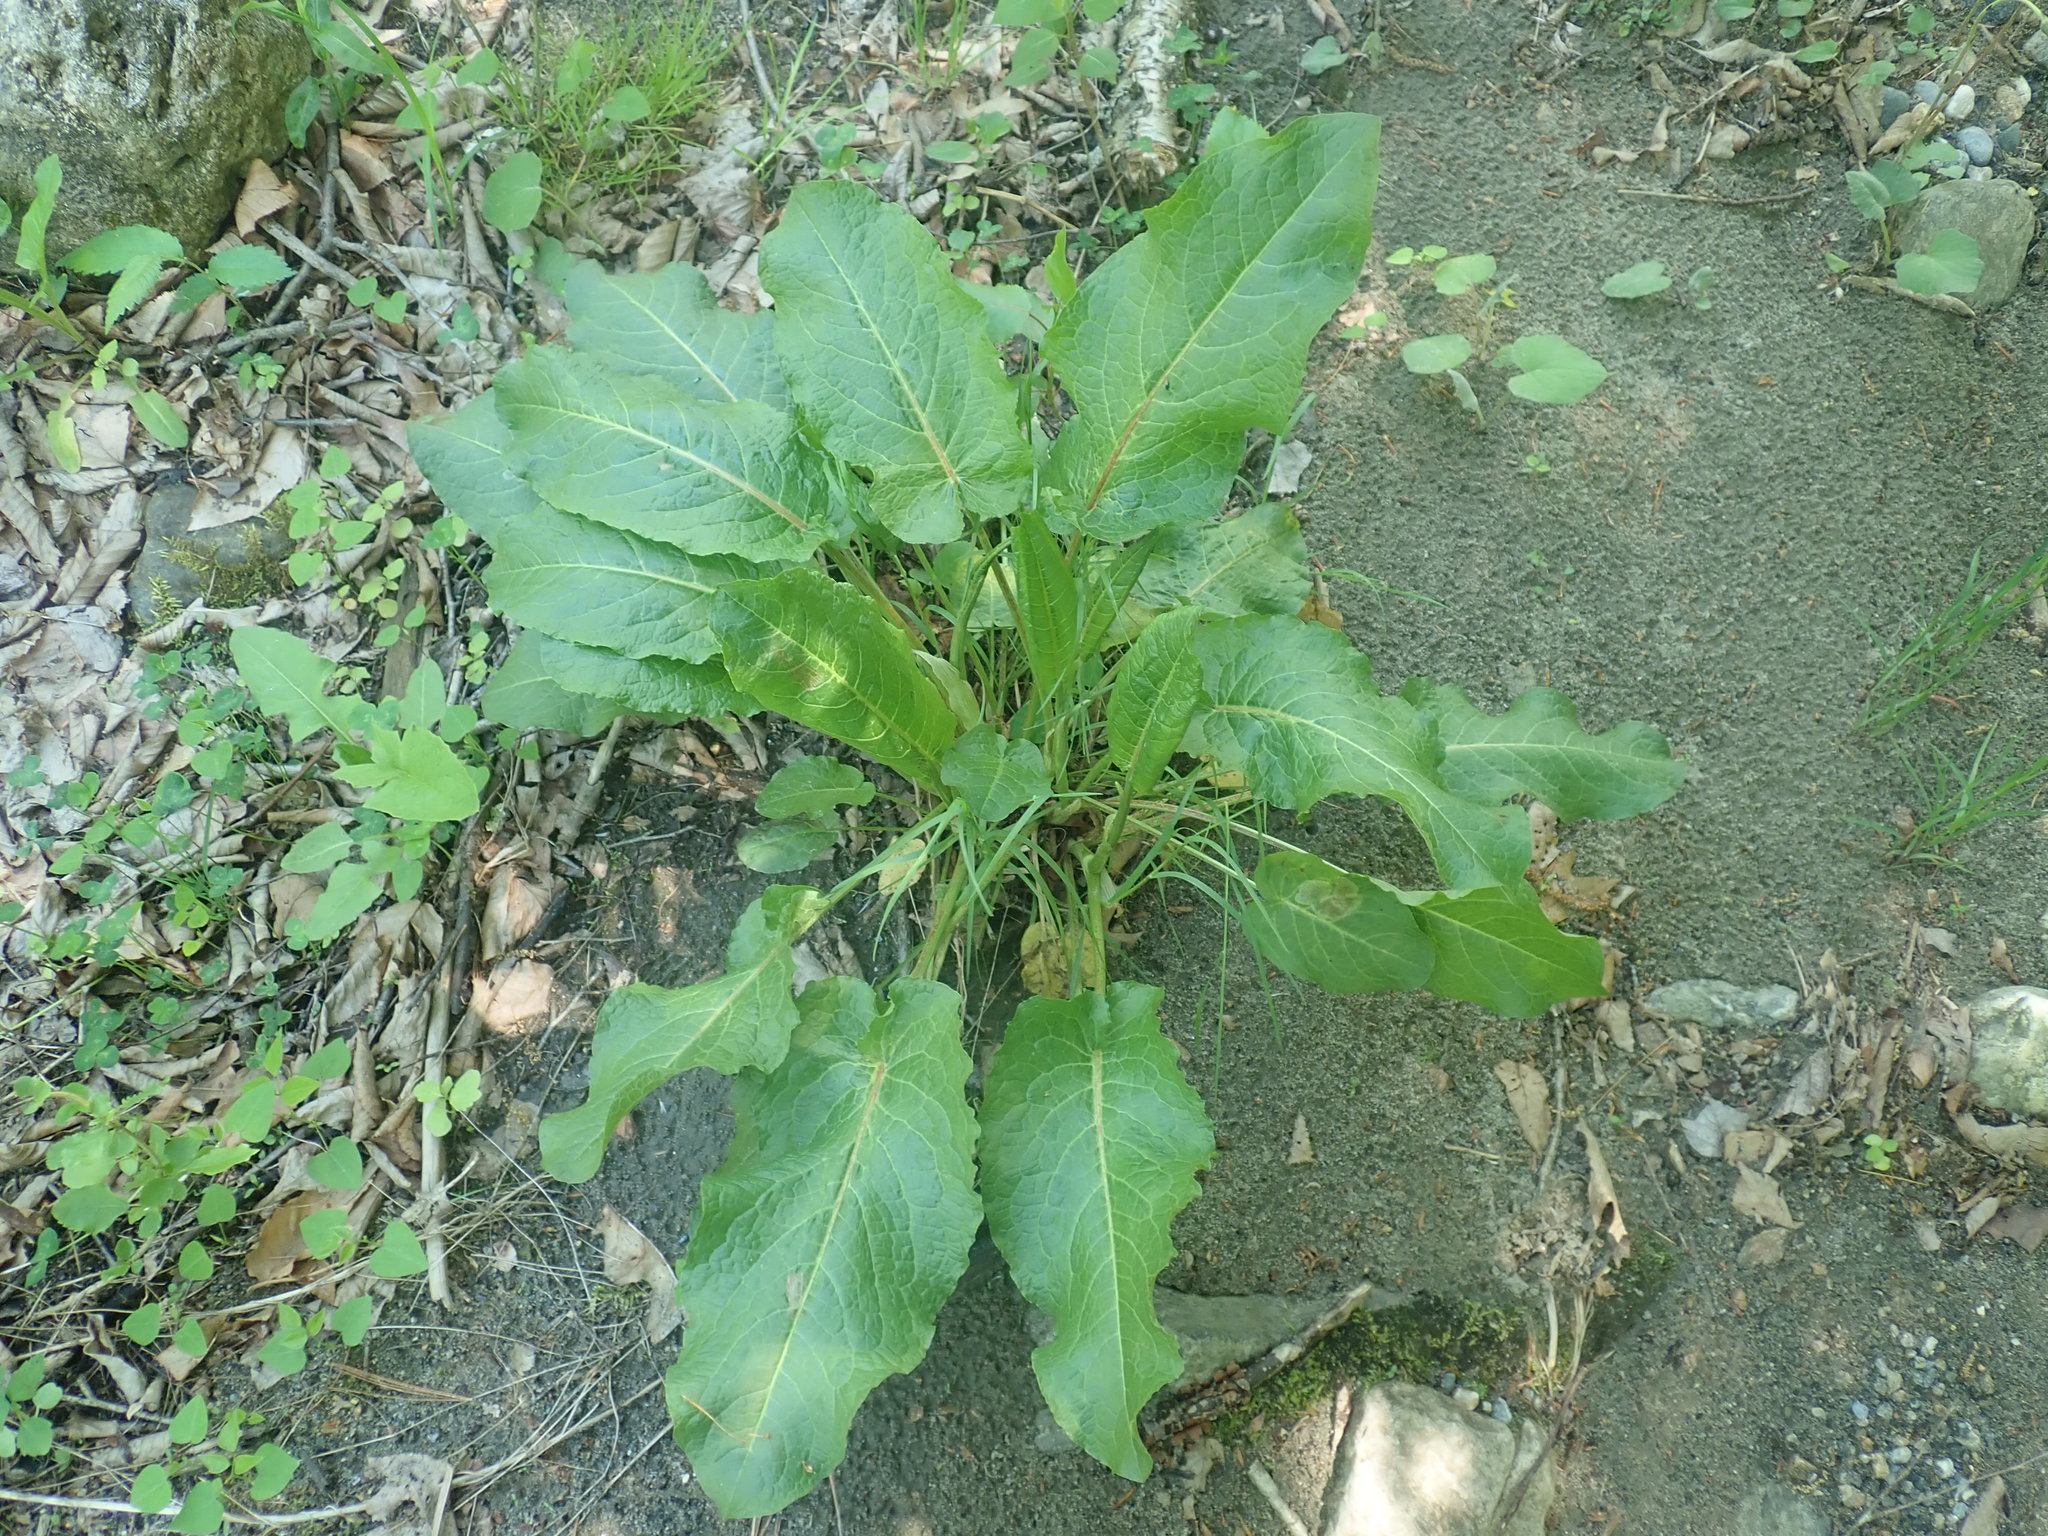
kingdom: Plantae
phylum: Tracheophyta
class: Magnoliopsida
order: Caryophyllales
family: Polygonaceae
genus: Rumex
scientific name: Rumex obtusifolius
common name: Bitter dock
